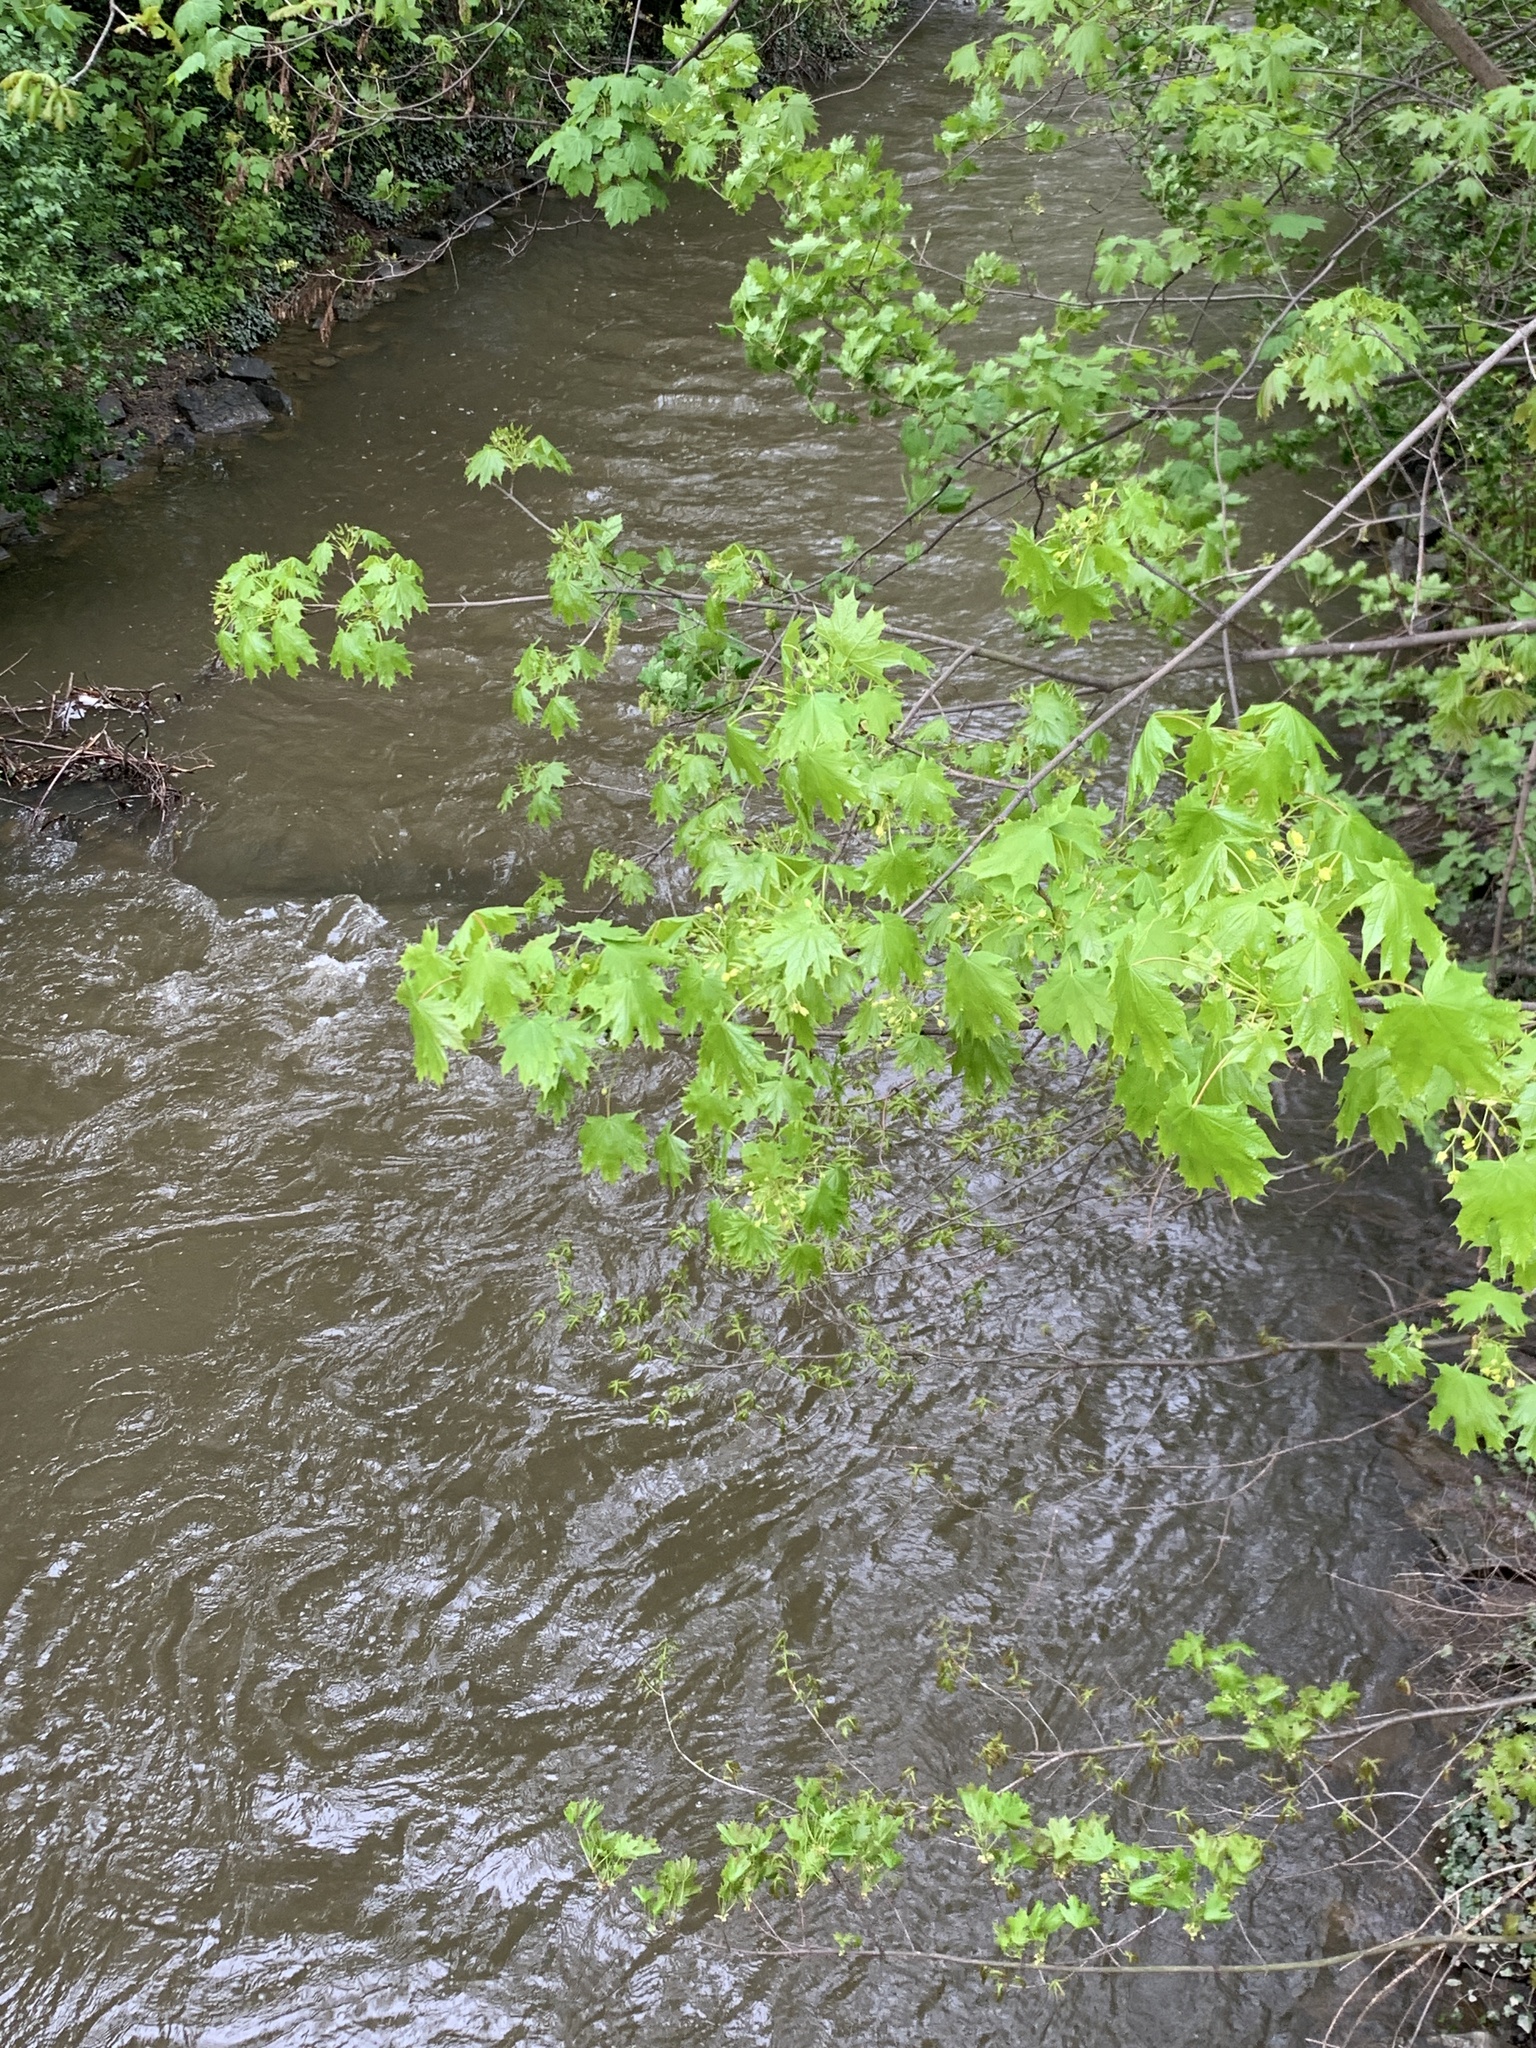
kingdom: Plantae
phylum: Tracheophyta
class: Magnoliopsida
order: Sapindales
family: Sapindaceae
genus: Acer
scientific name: Acer platanoides
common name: Norway maple
